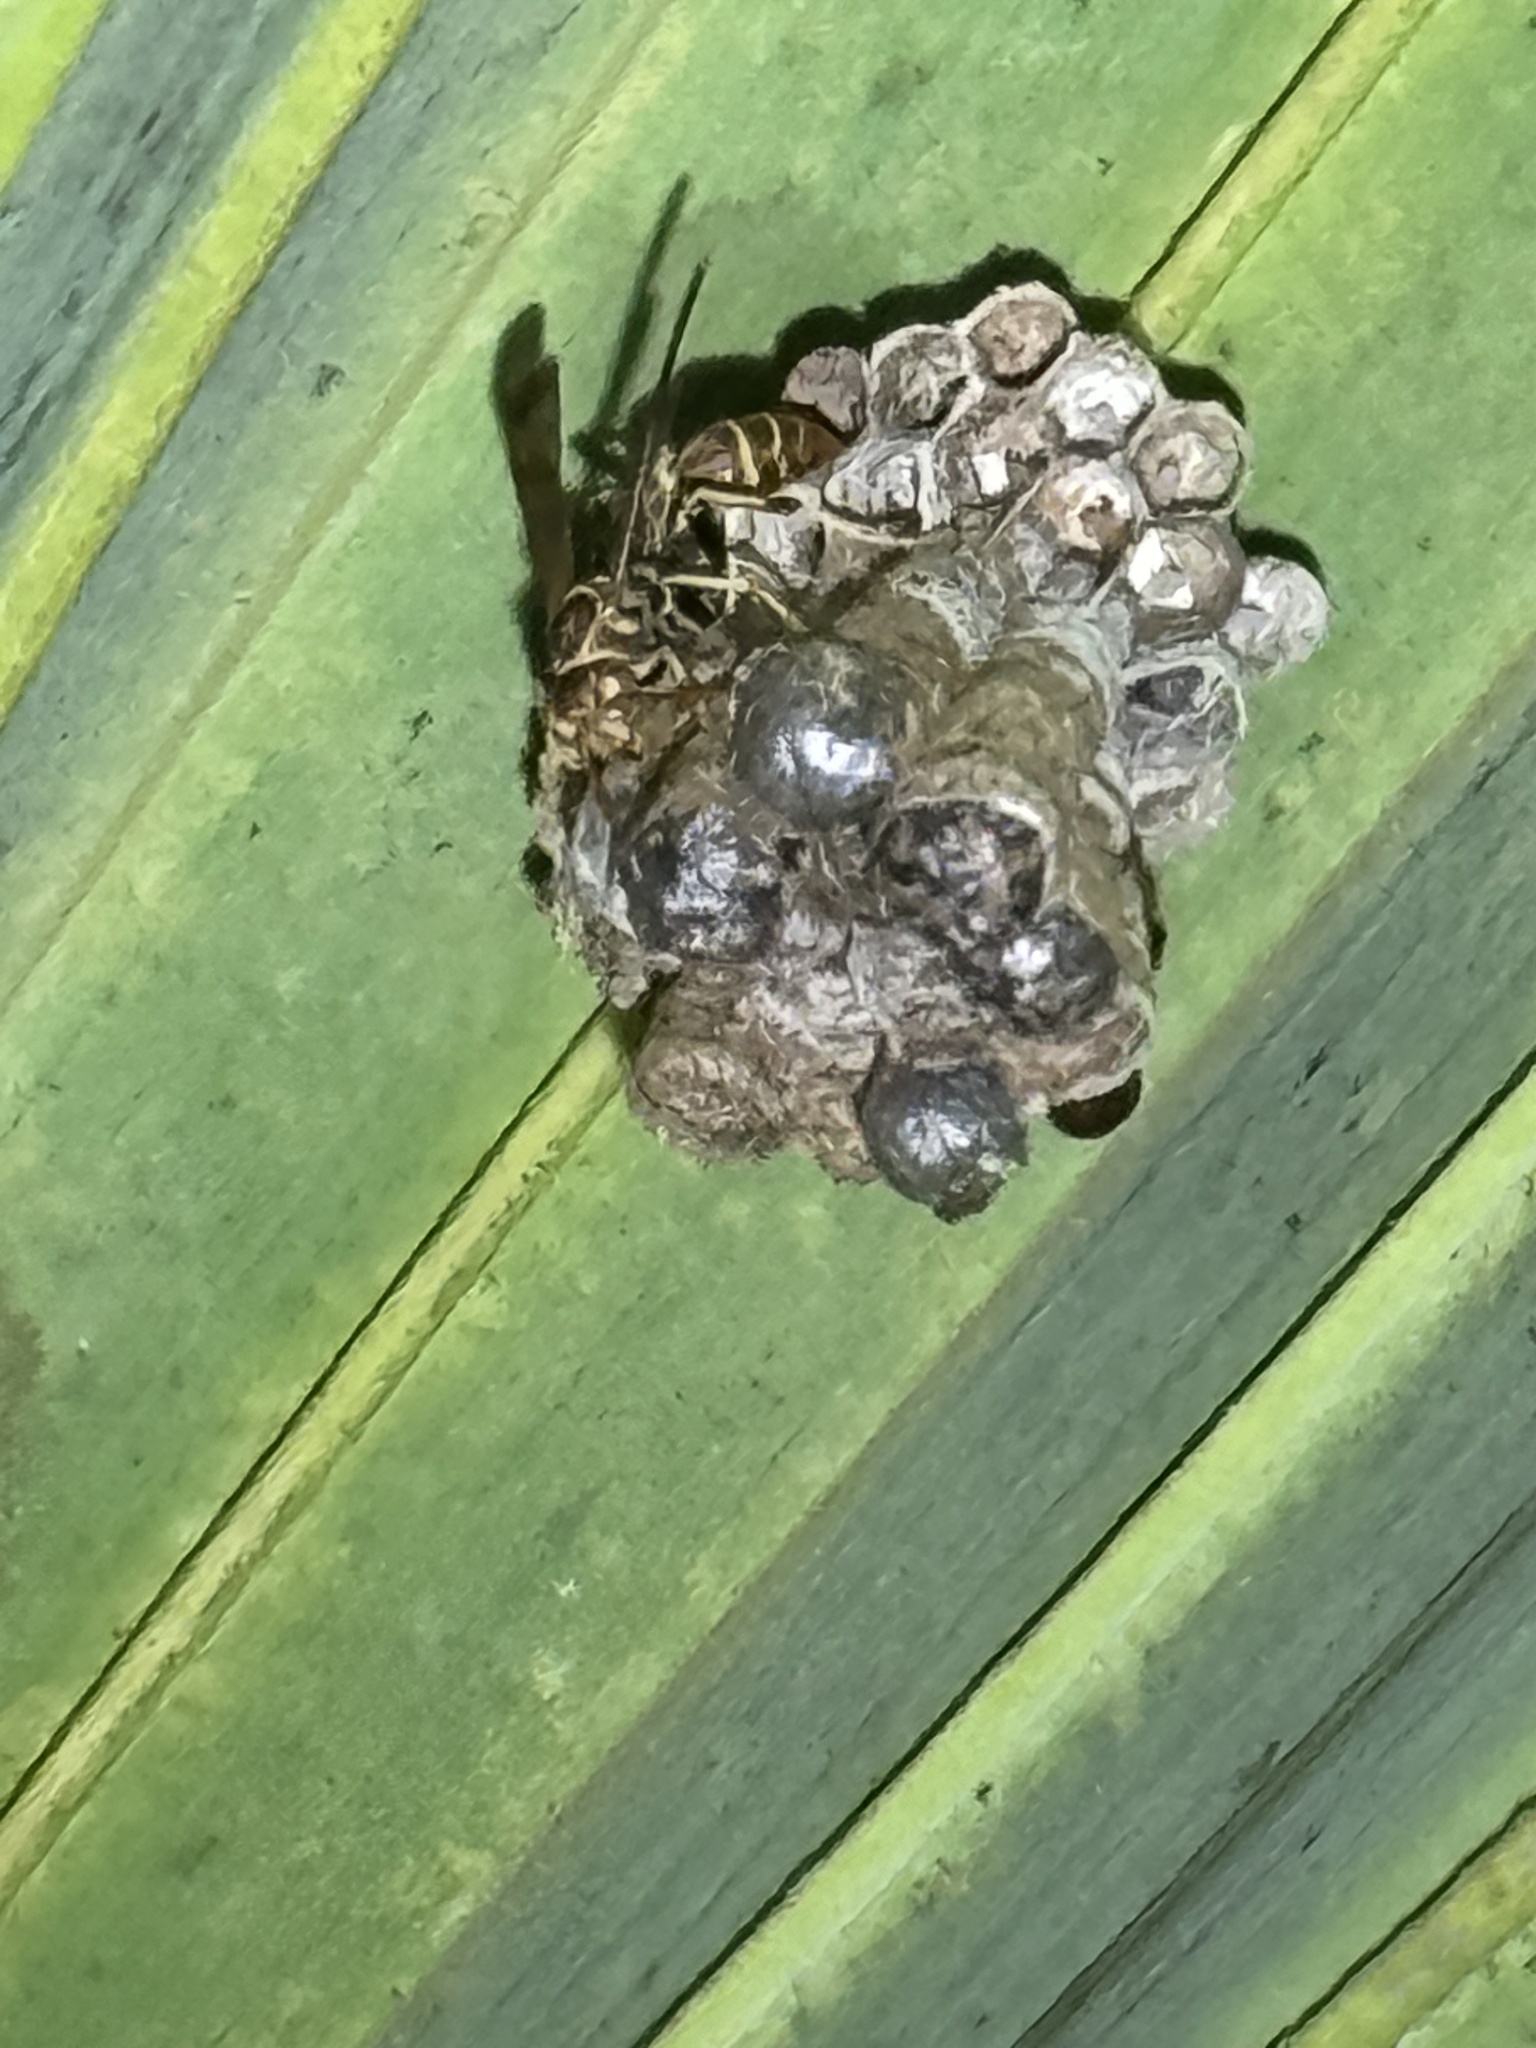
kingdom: Animalia
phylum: Arthropoda
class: Insecta
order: Hymenoptera
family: Vespidae
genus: Mischocyttarus
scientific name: Mischocyttarus mexicanus
